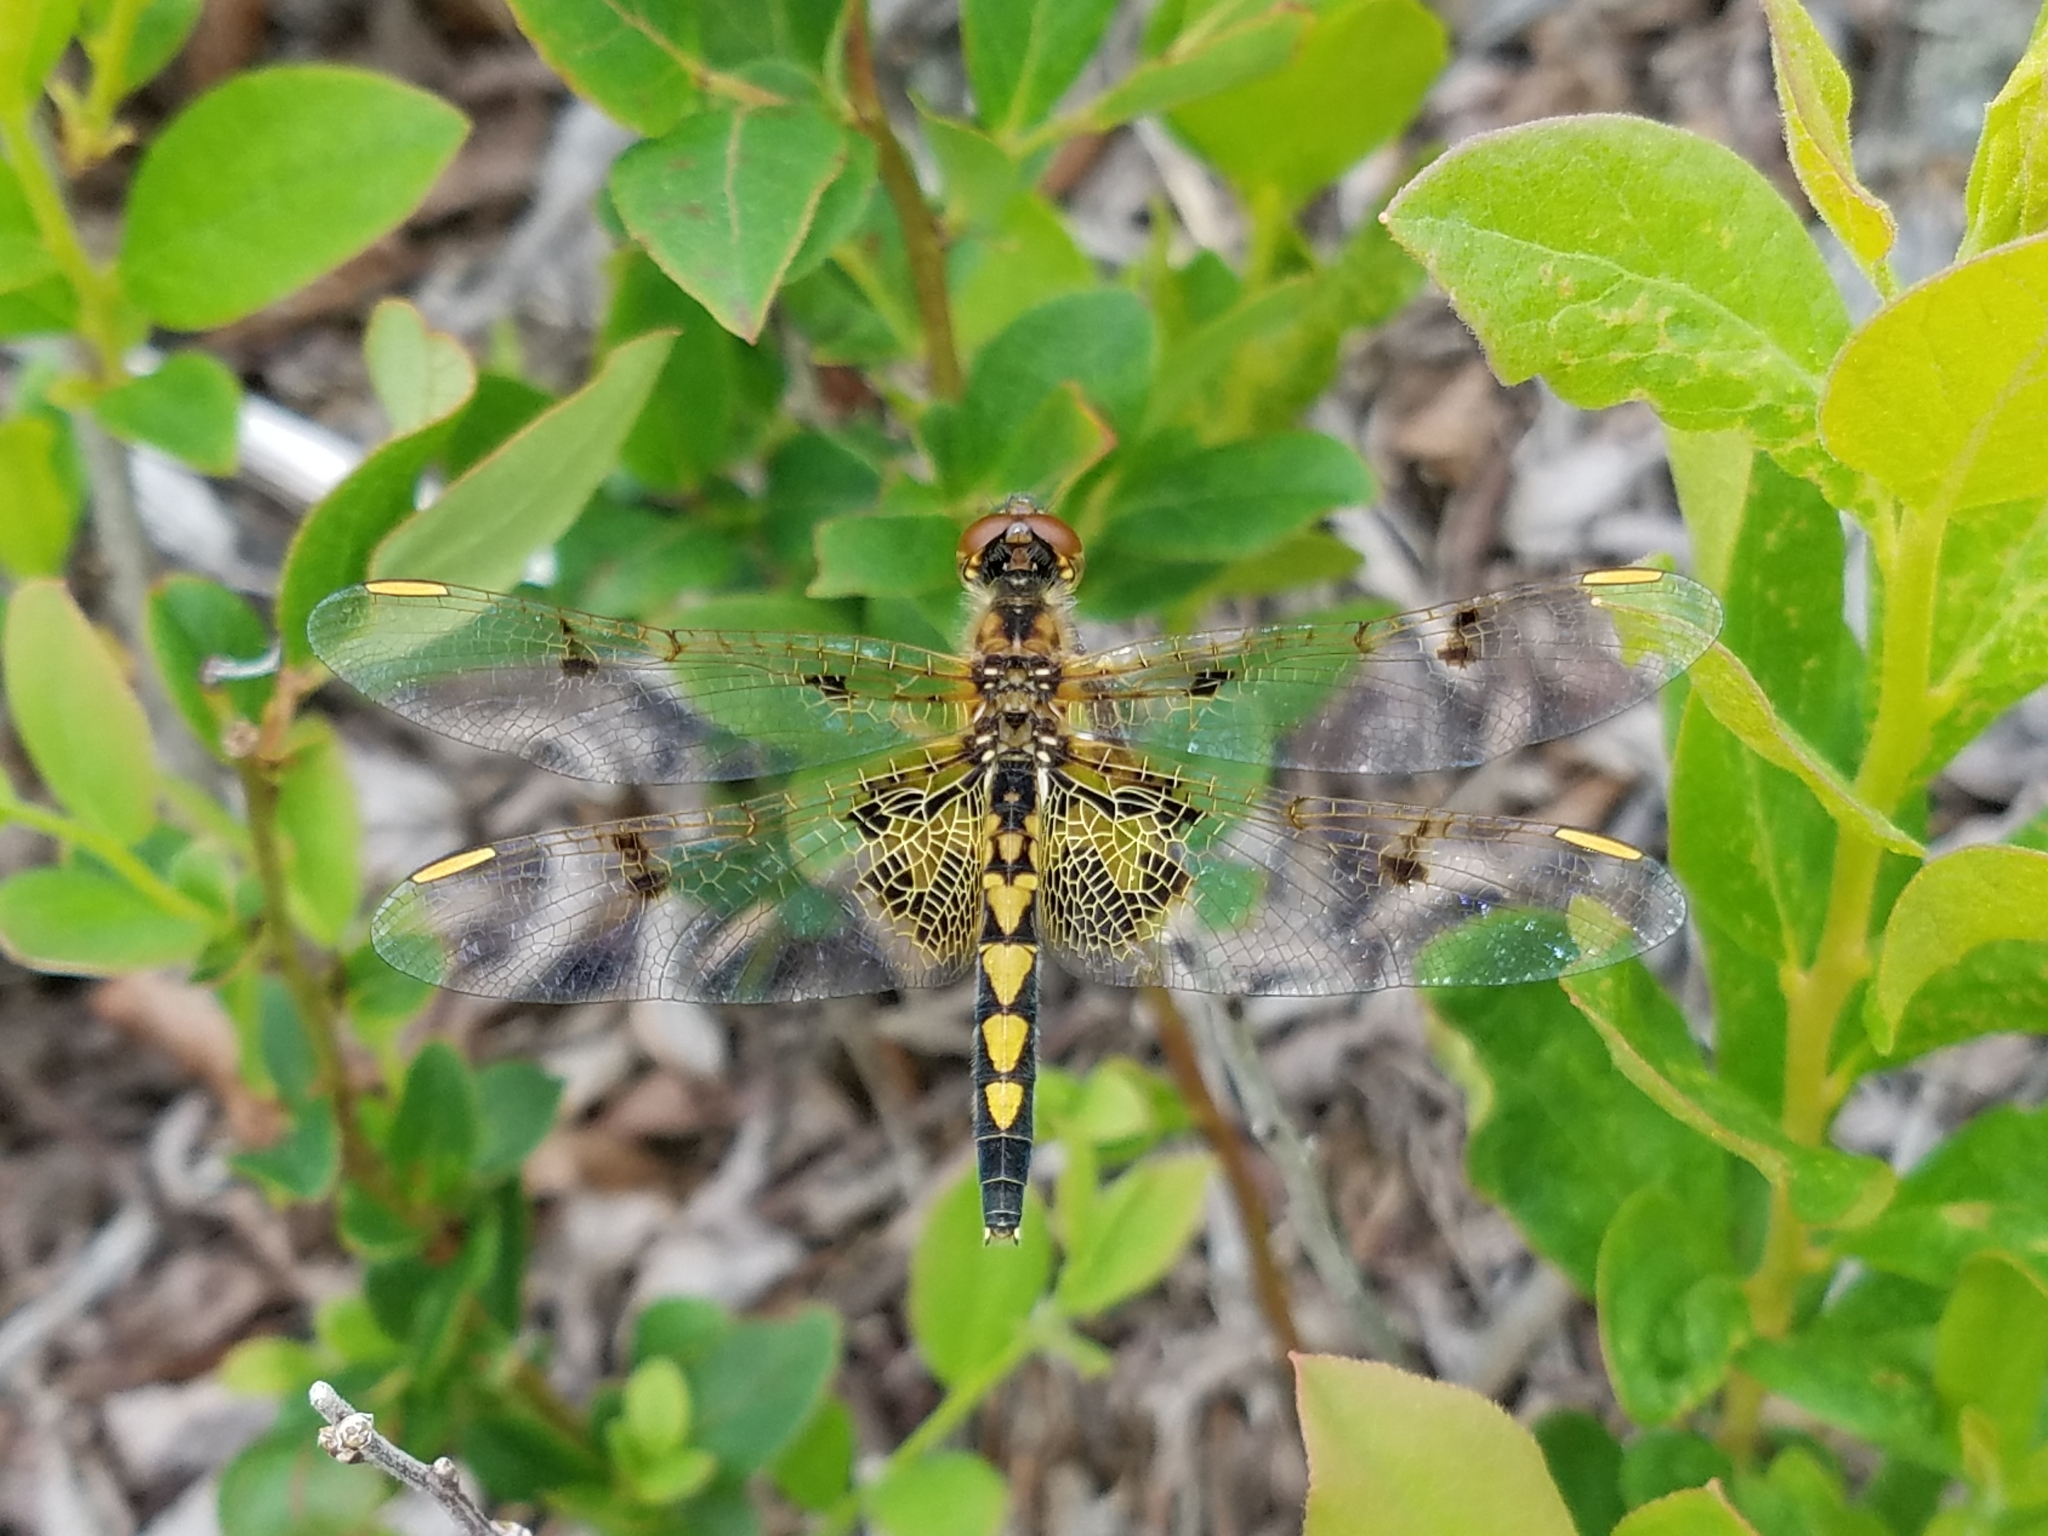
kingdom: Animalia
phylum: Arthropoda
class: Insecta
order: Odonata
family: Libellulidae
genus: Celithemis
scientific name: Celithemis elisa
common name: Calico pennant
